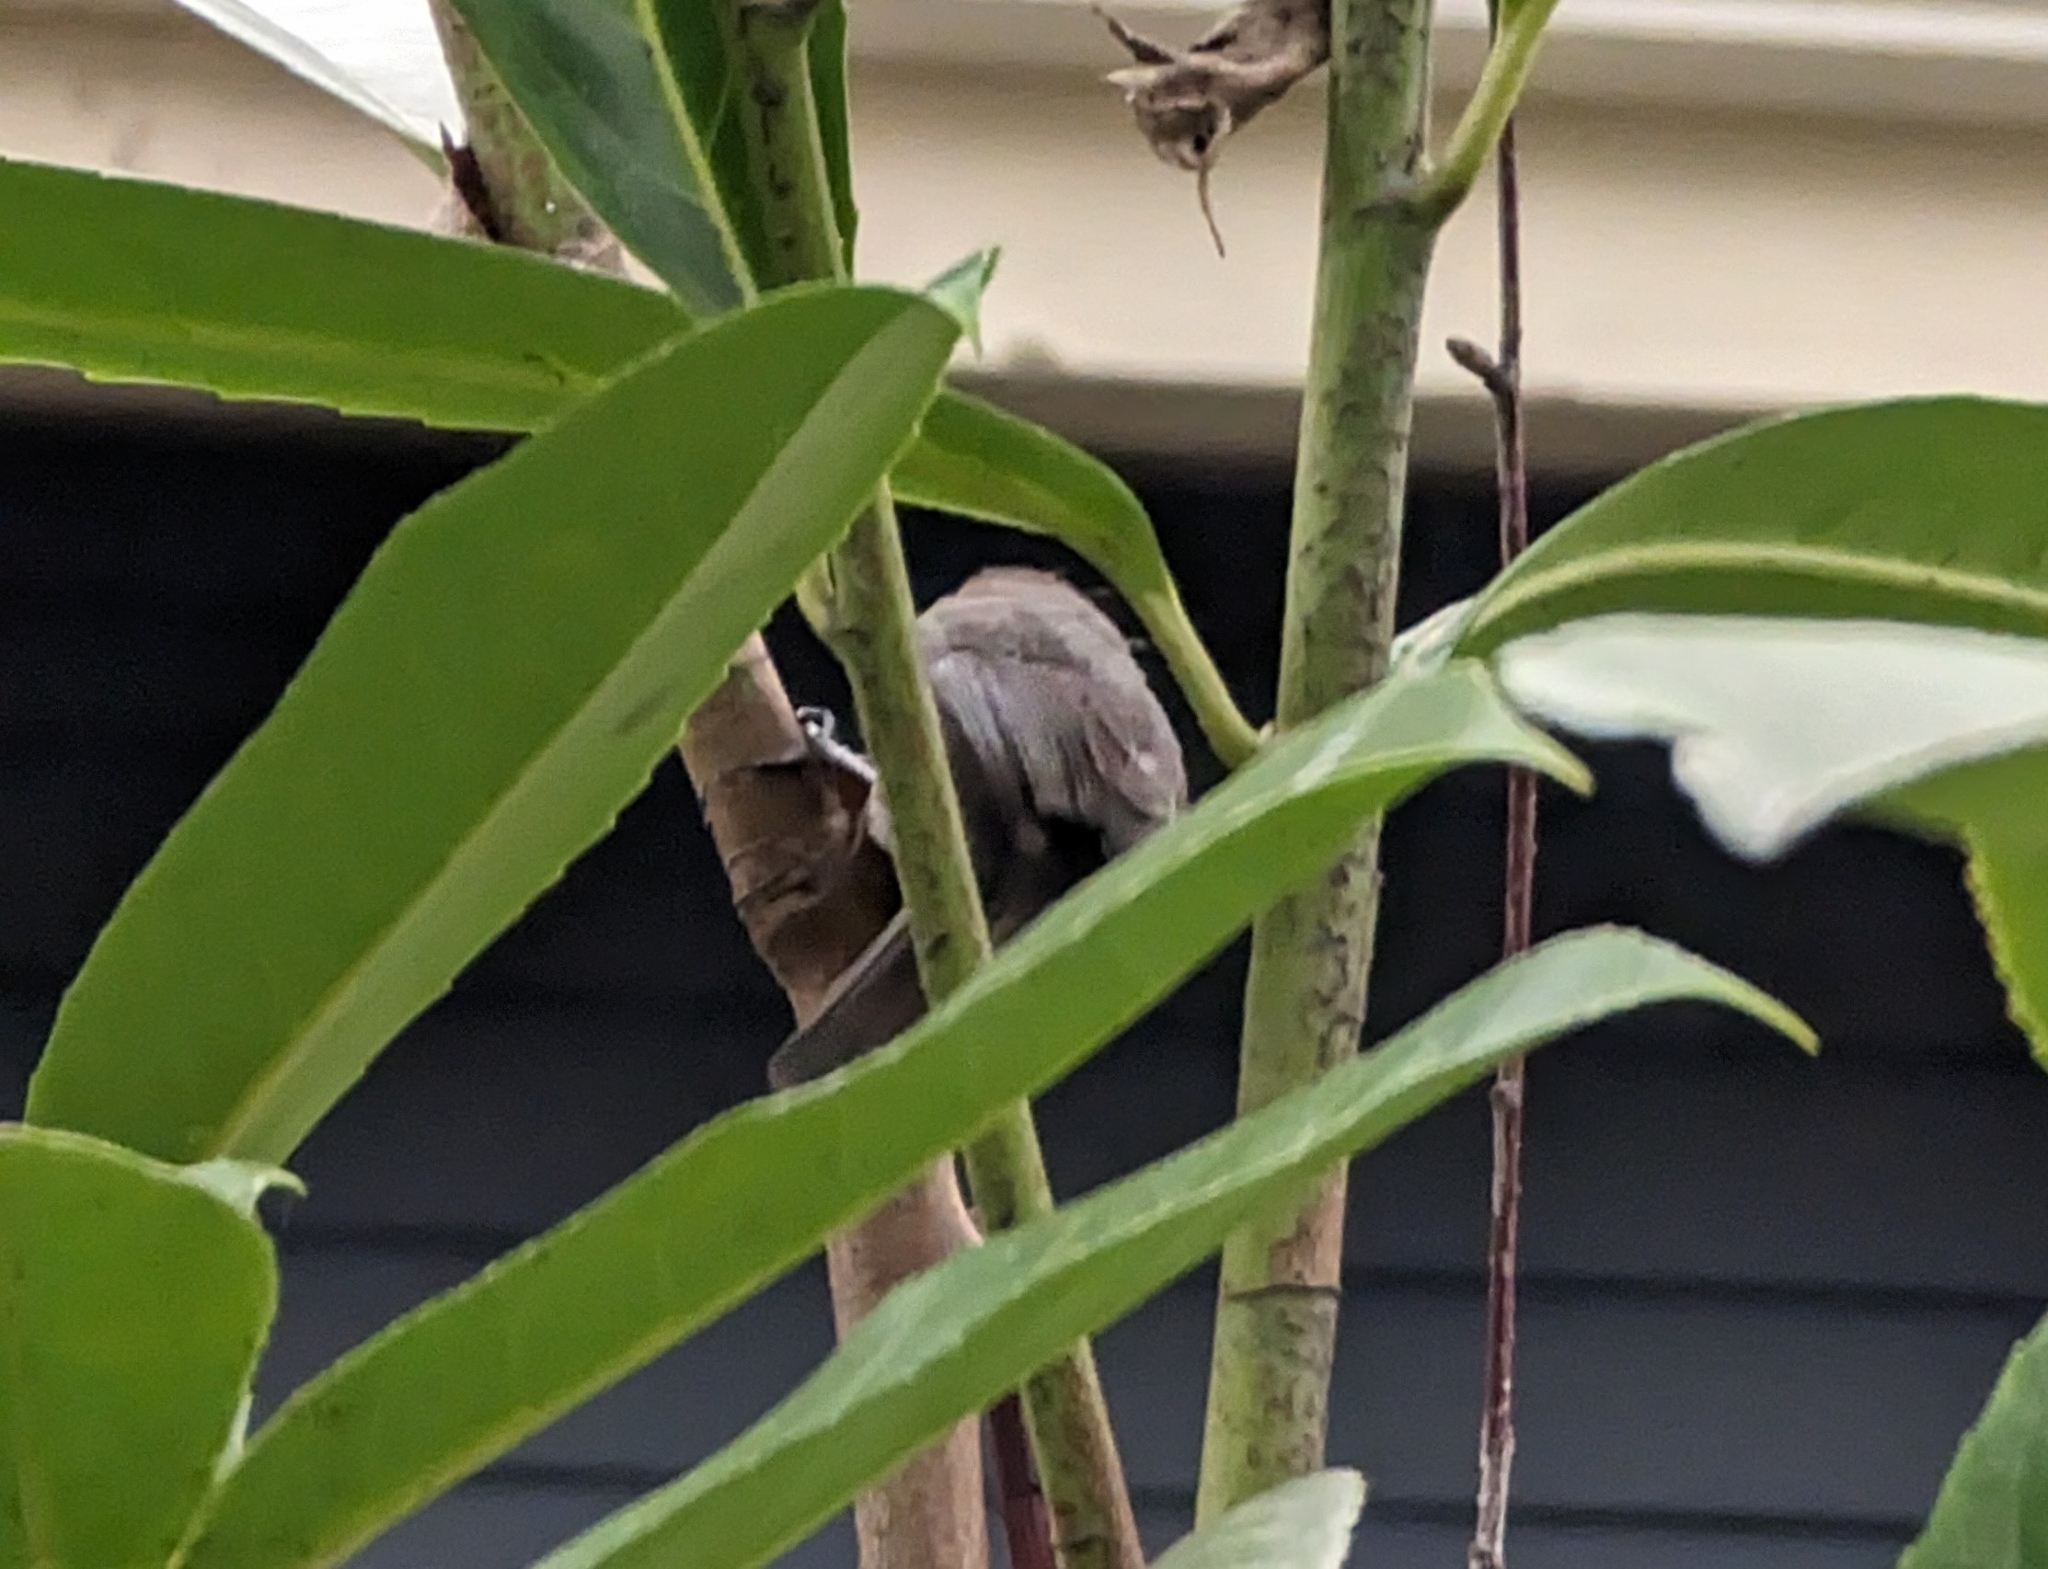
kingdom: Animalia
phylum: Chordata
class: Aves
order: Passeriformes
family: Aegithalidae
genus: Psaltriparus
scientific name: Psaltriparus minimus
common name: American bushtit
